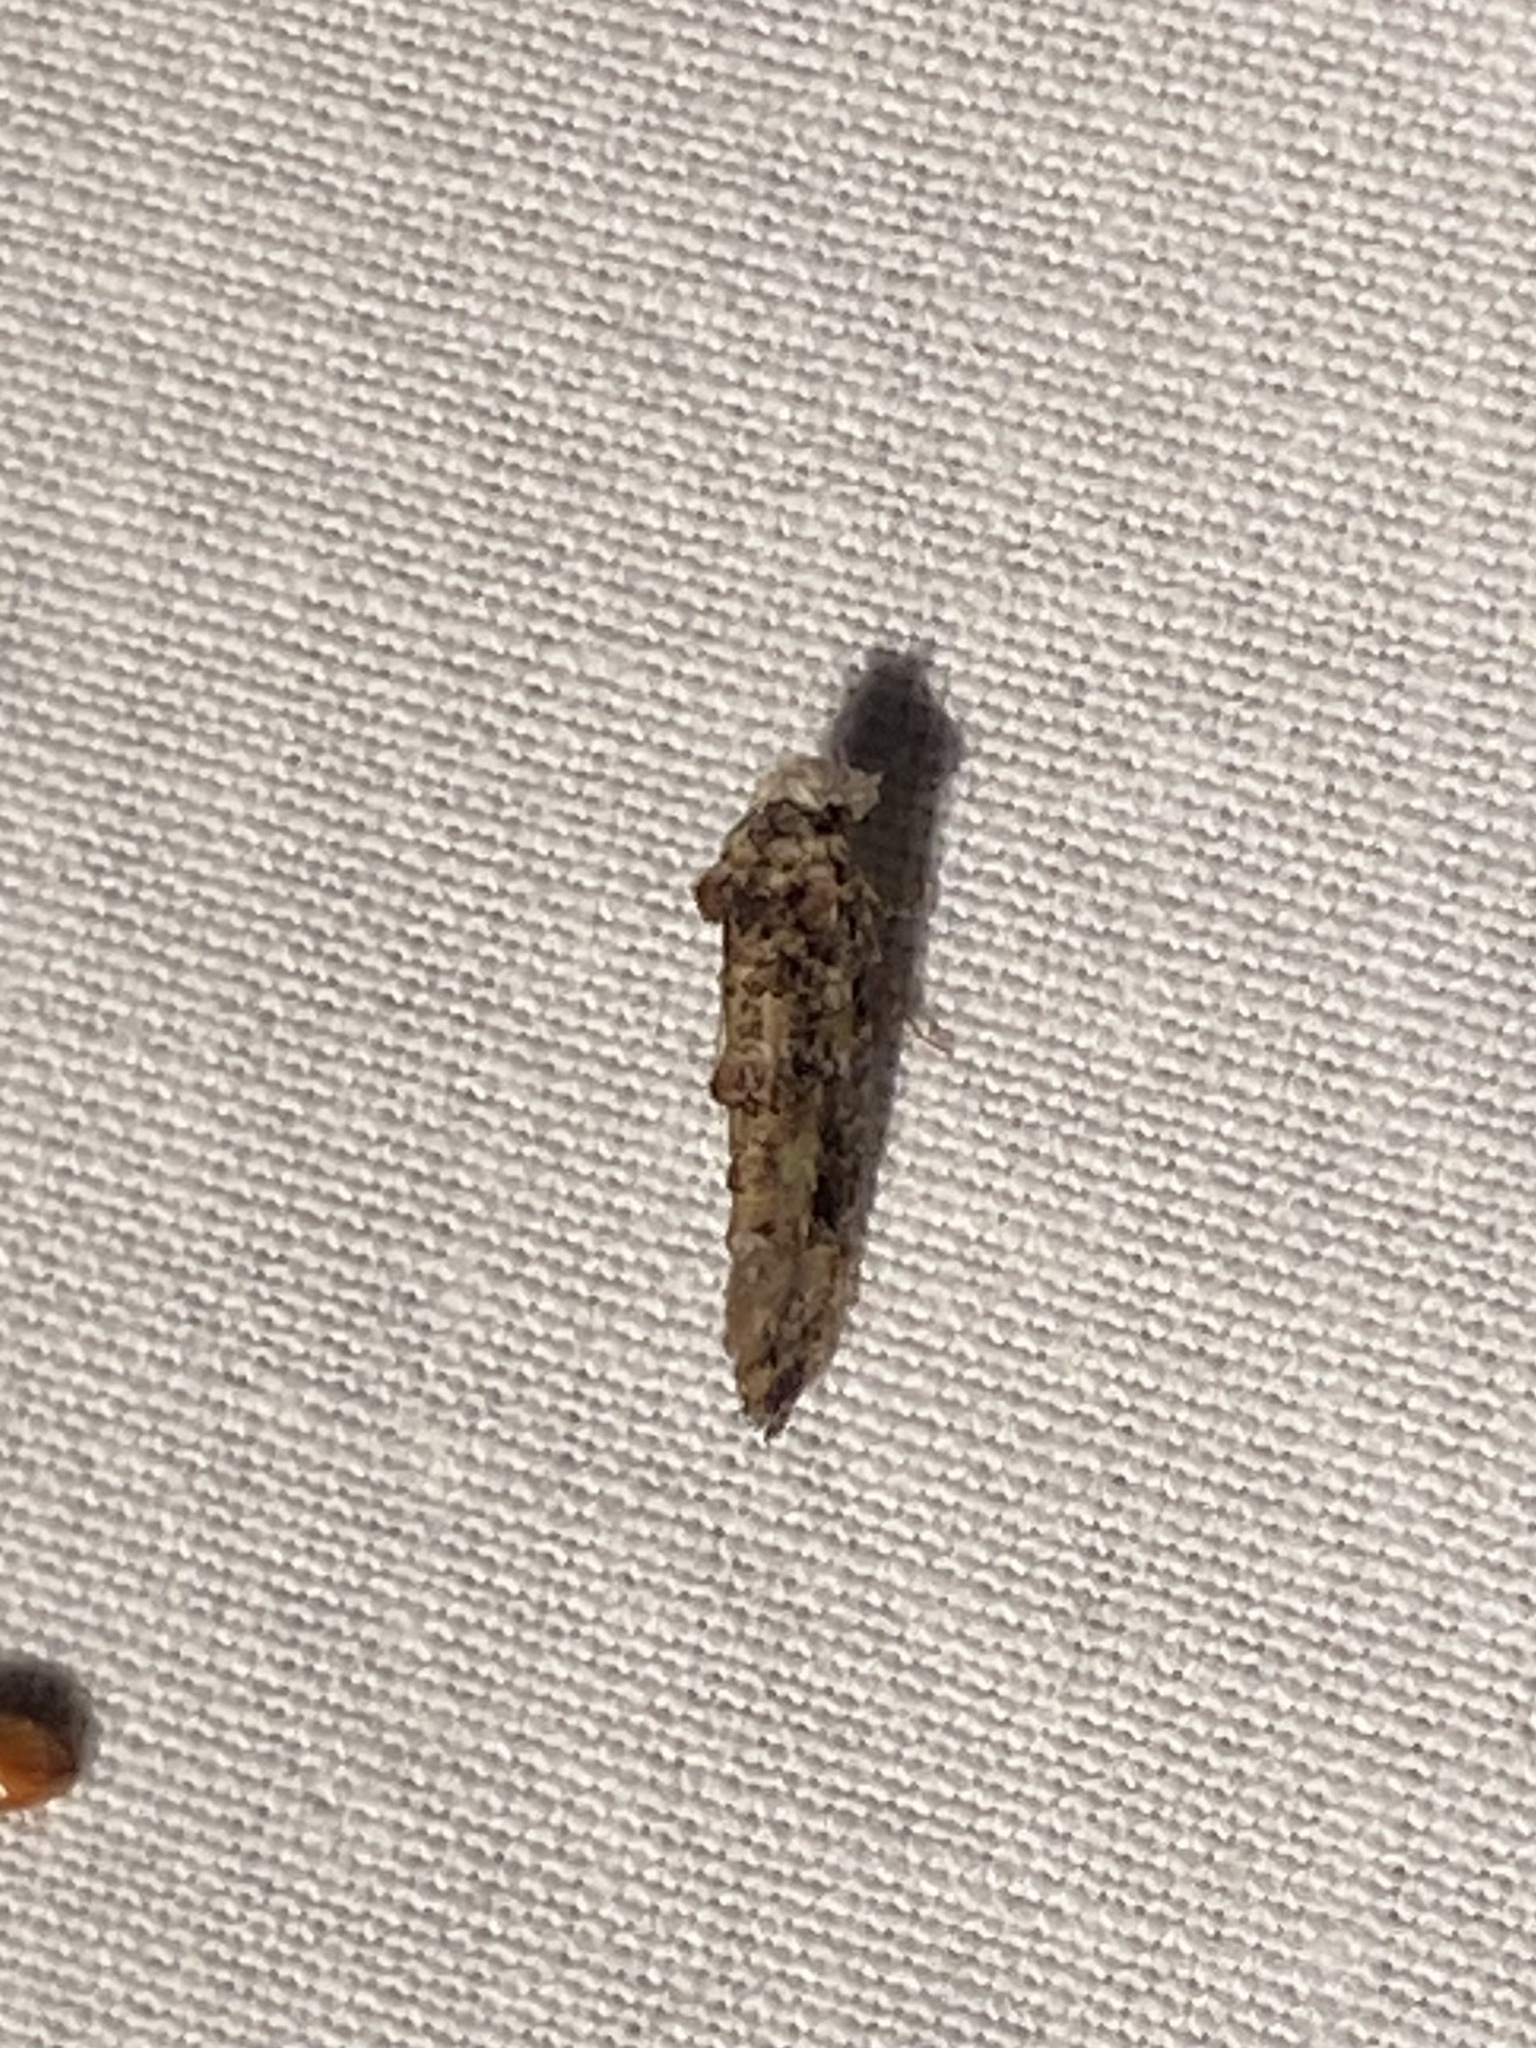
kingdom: Animalia
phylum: Arthropoda
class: Insecta
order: Lepidoptera
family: Tineidae
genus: Xylesthia
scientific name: Xylesthia pruniramiella
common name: Clemens' bark moth
